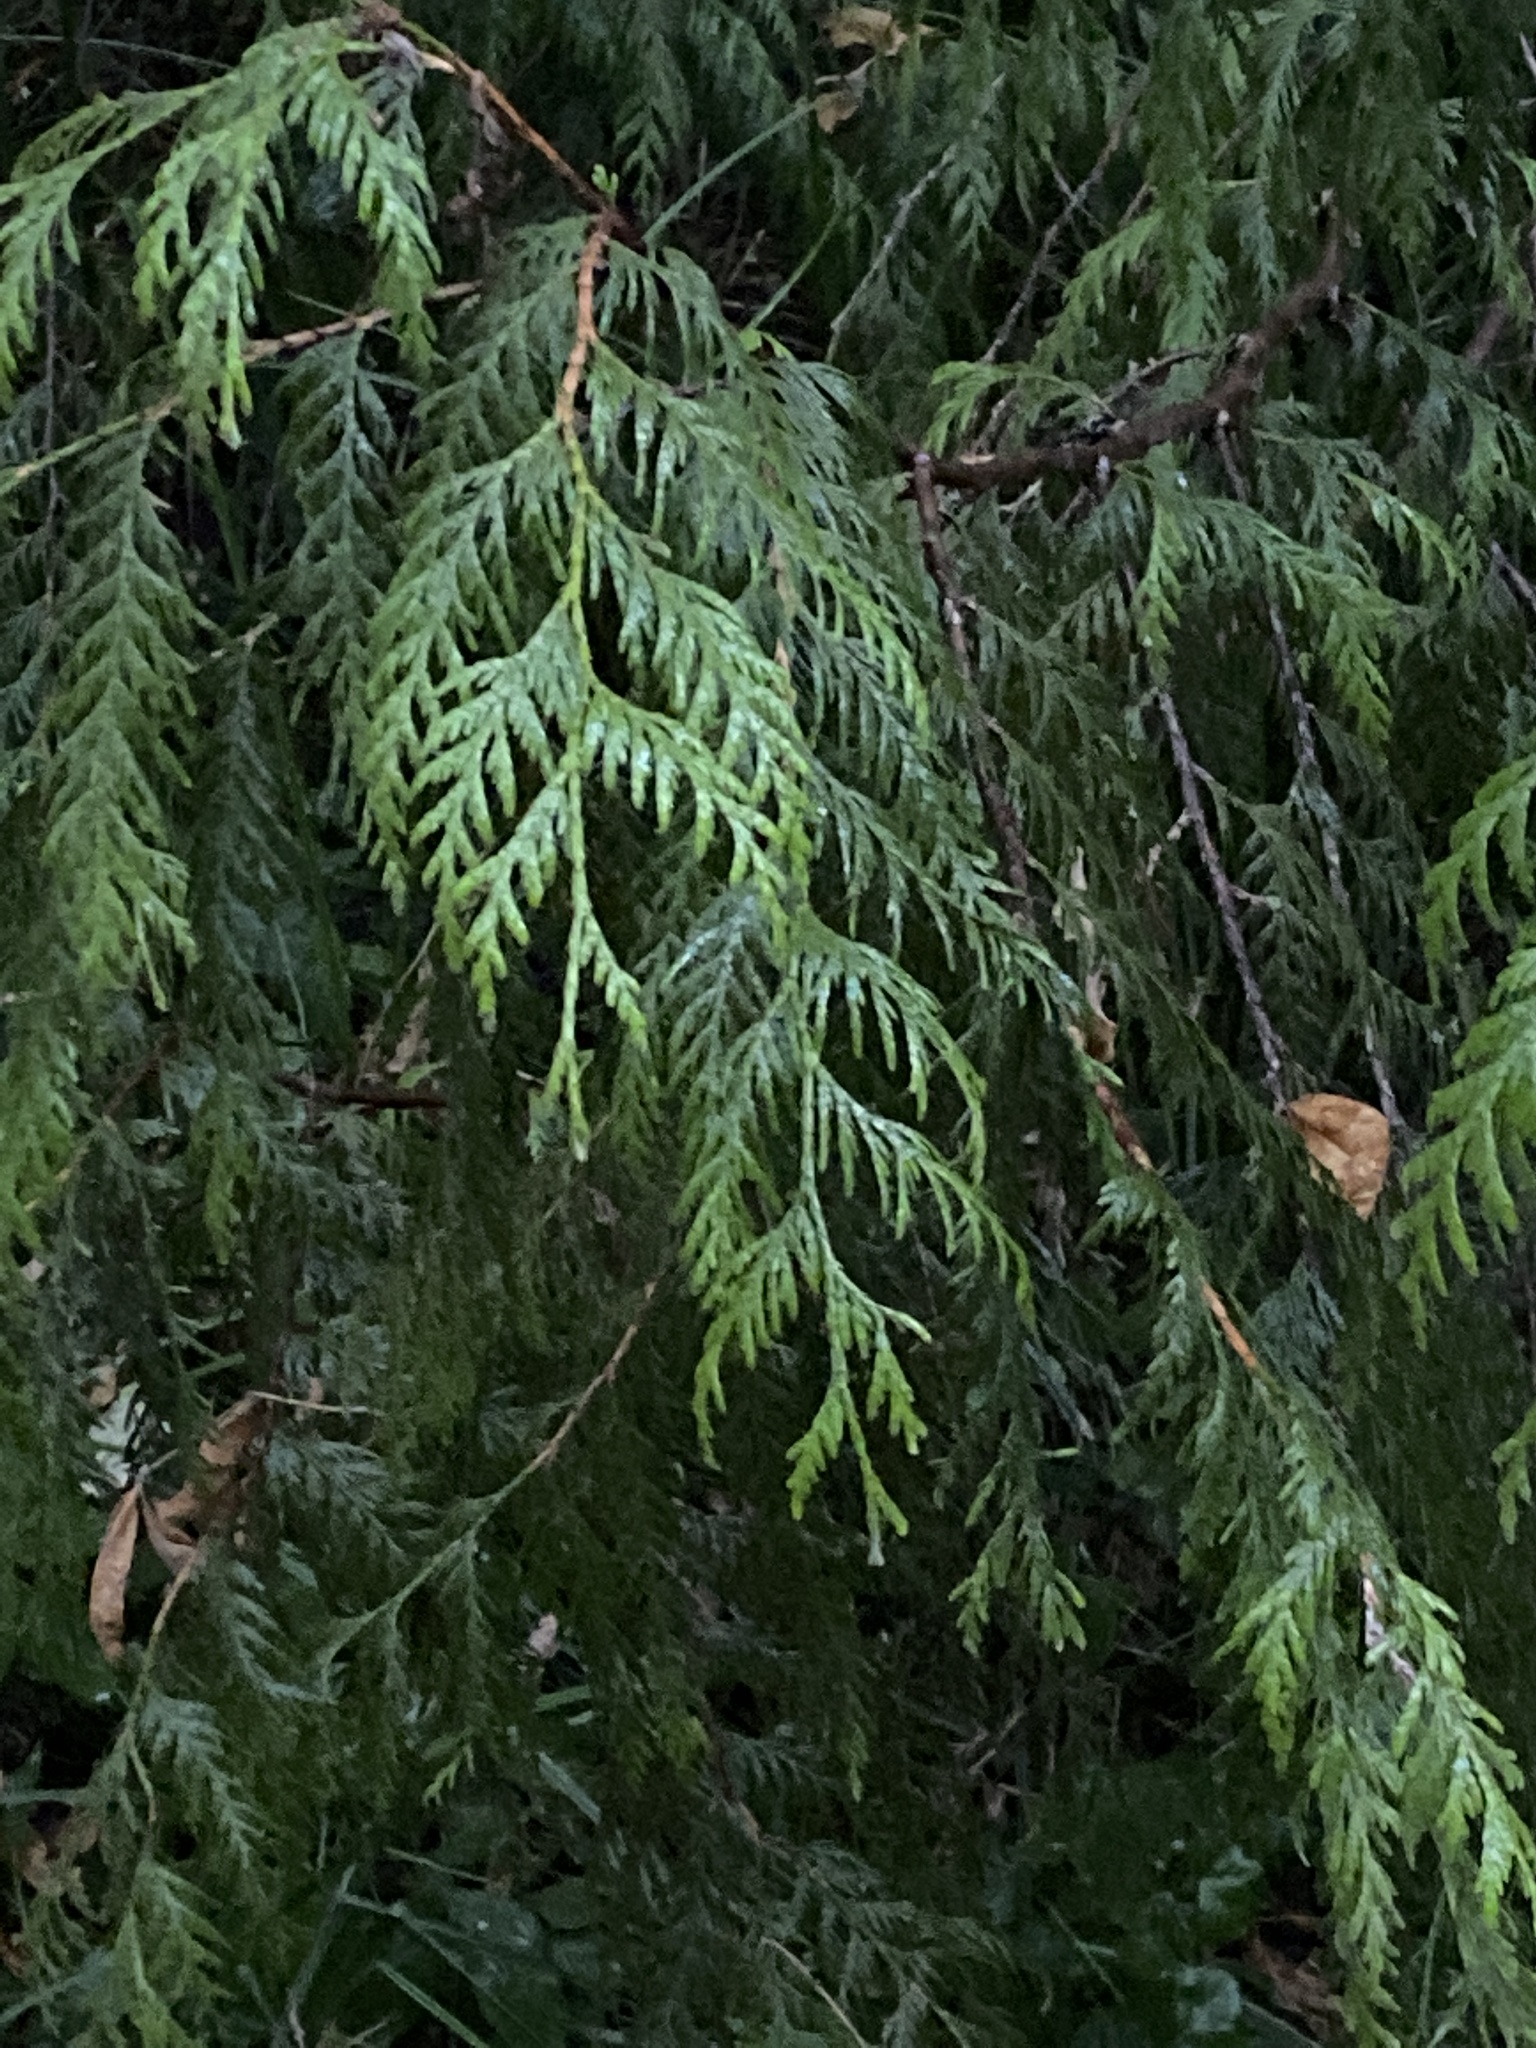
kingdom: Plantae
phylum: Tracheophyta
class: Pinopsida
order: Pinales
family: Cupressaceae
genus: Thuja
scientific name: Thuja plicata
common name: Western red-cedar
